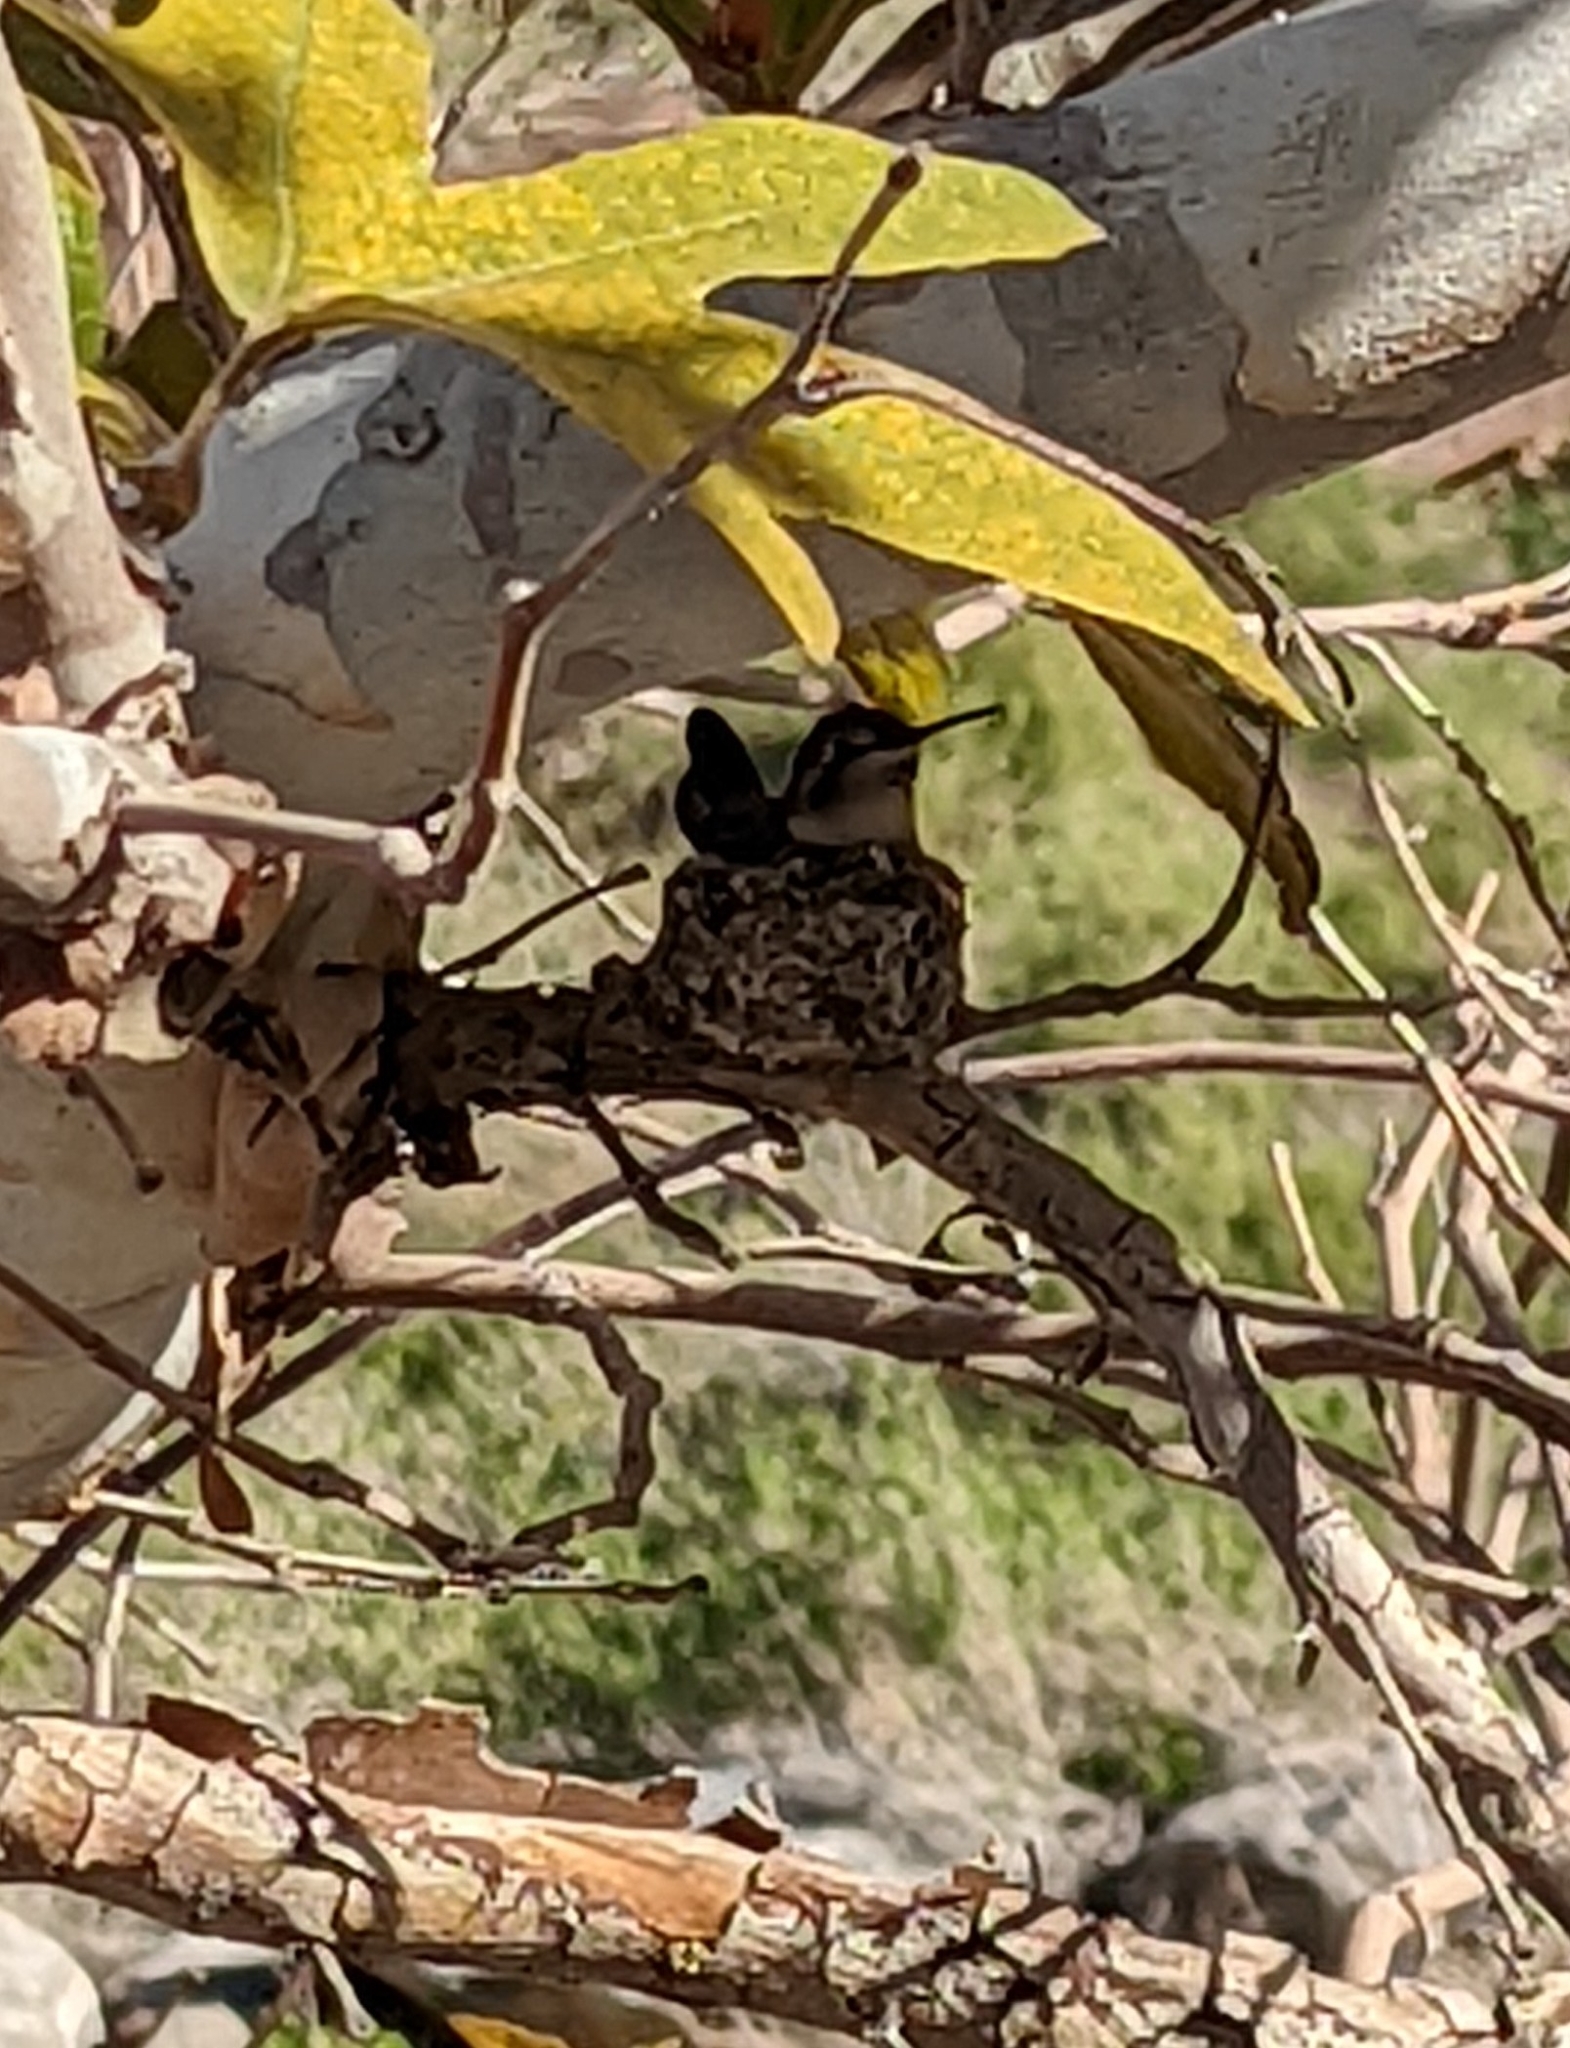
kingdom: Animalia
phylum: Chordata
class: Aves
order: Apodiformes
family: Trochilidae
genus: Calypte
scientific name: Calypte costae
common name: Costa's hummingbird
